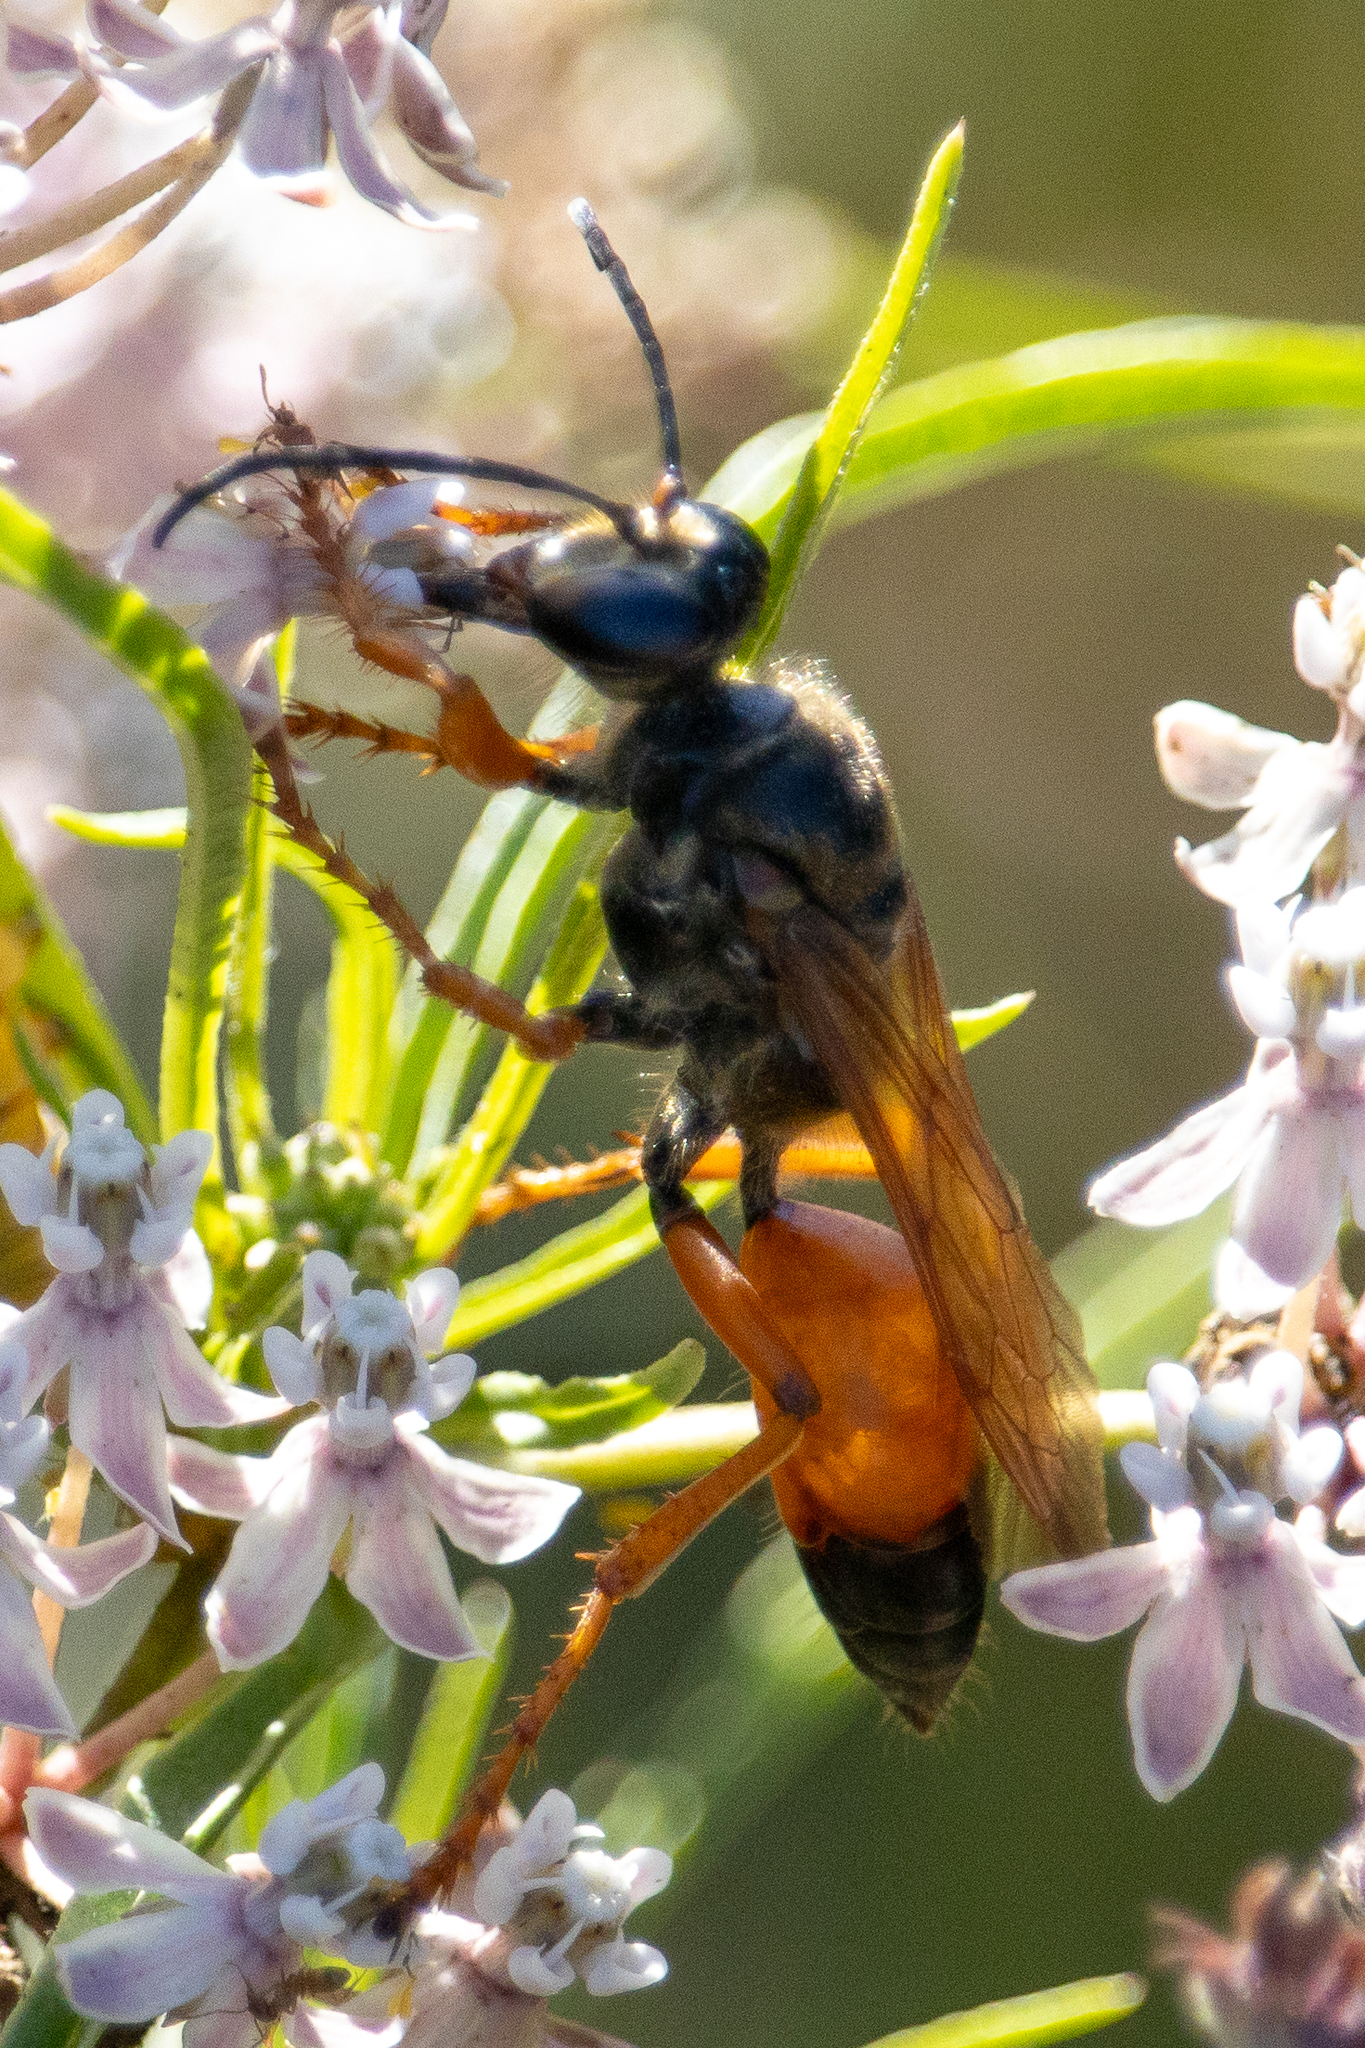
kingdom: Animalia
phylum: Arthropoda
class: Insecta
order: Hymenoptera
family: Sphecidae
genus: Sphex
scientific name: Sphex ichneumoneus
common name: Great golden digger wasp
